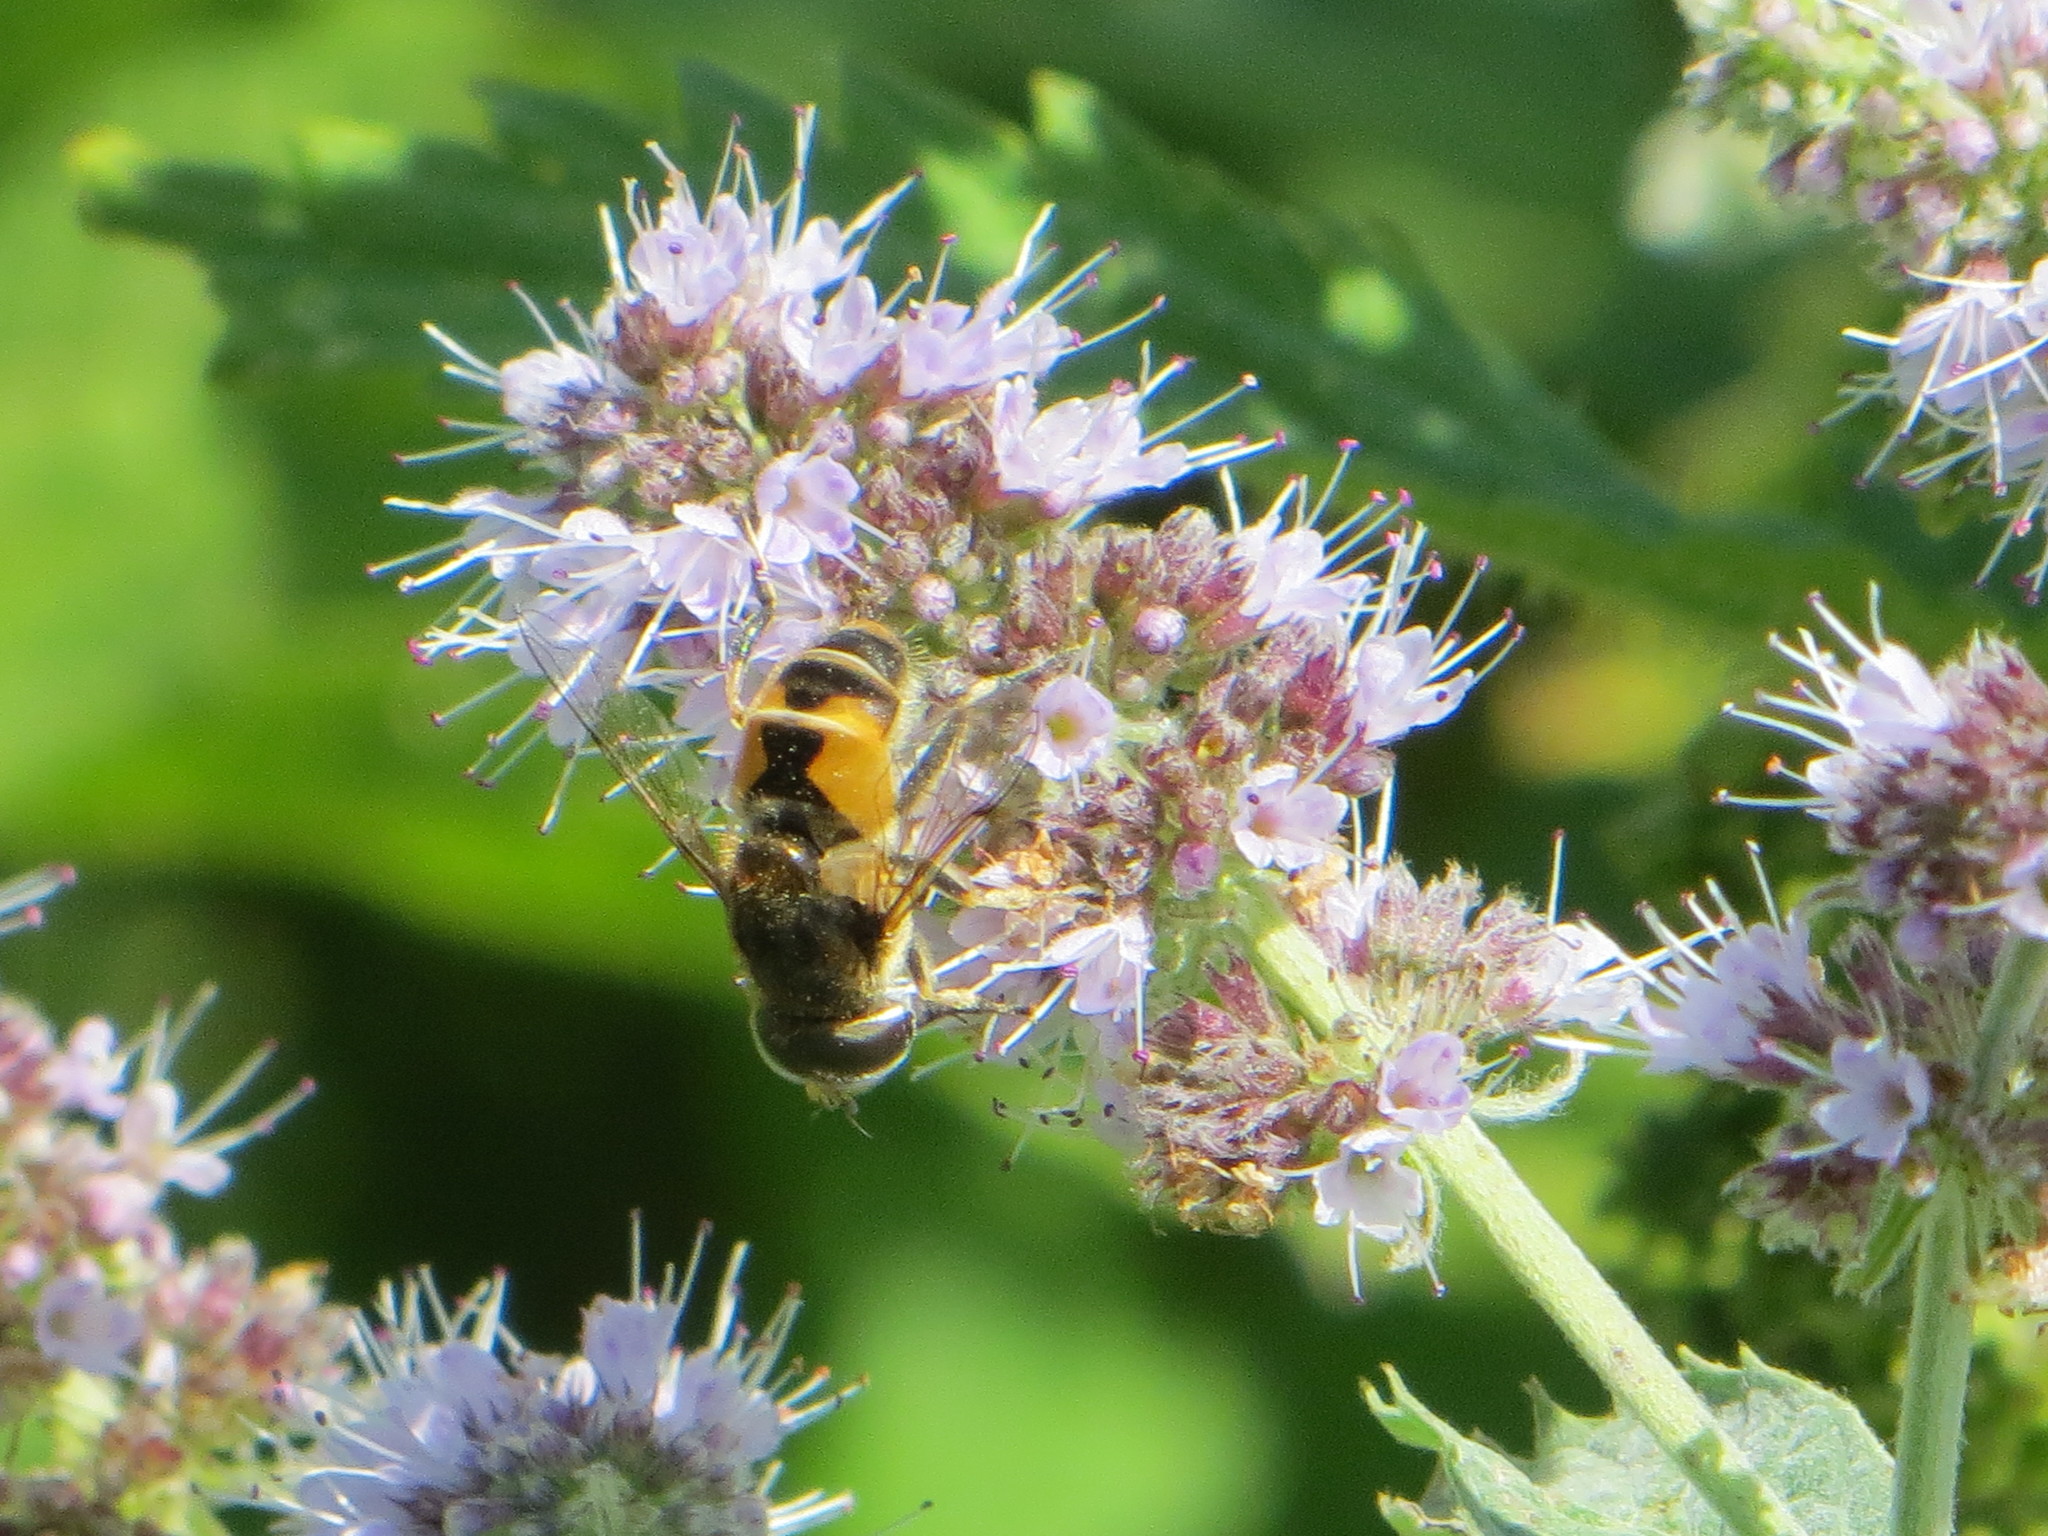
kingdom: Animalia
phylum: Arthropoda
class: Insecta
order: Diptera
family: Tachinidae
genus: Phasia
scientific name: Phasia hemiptera
